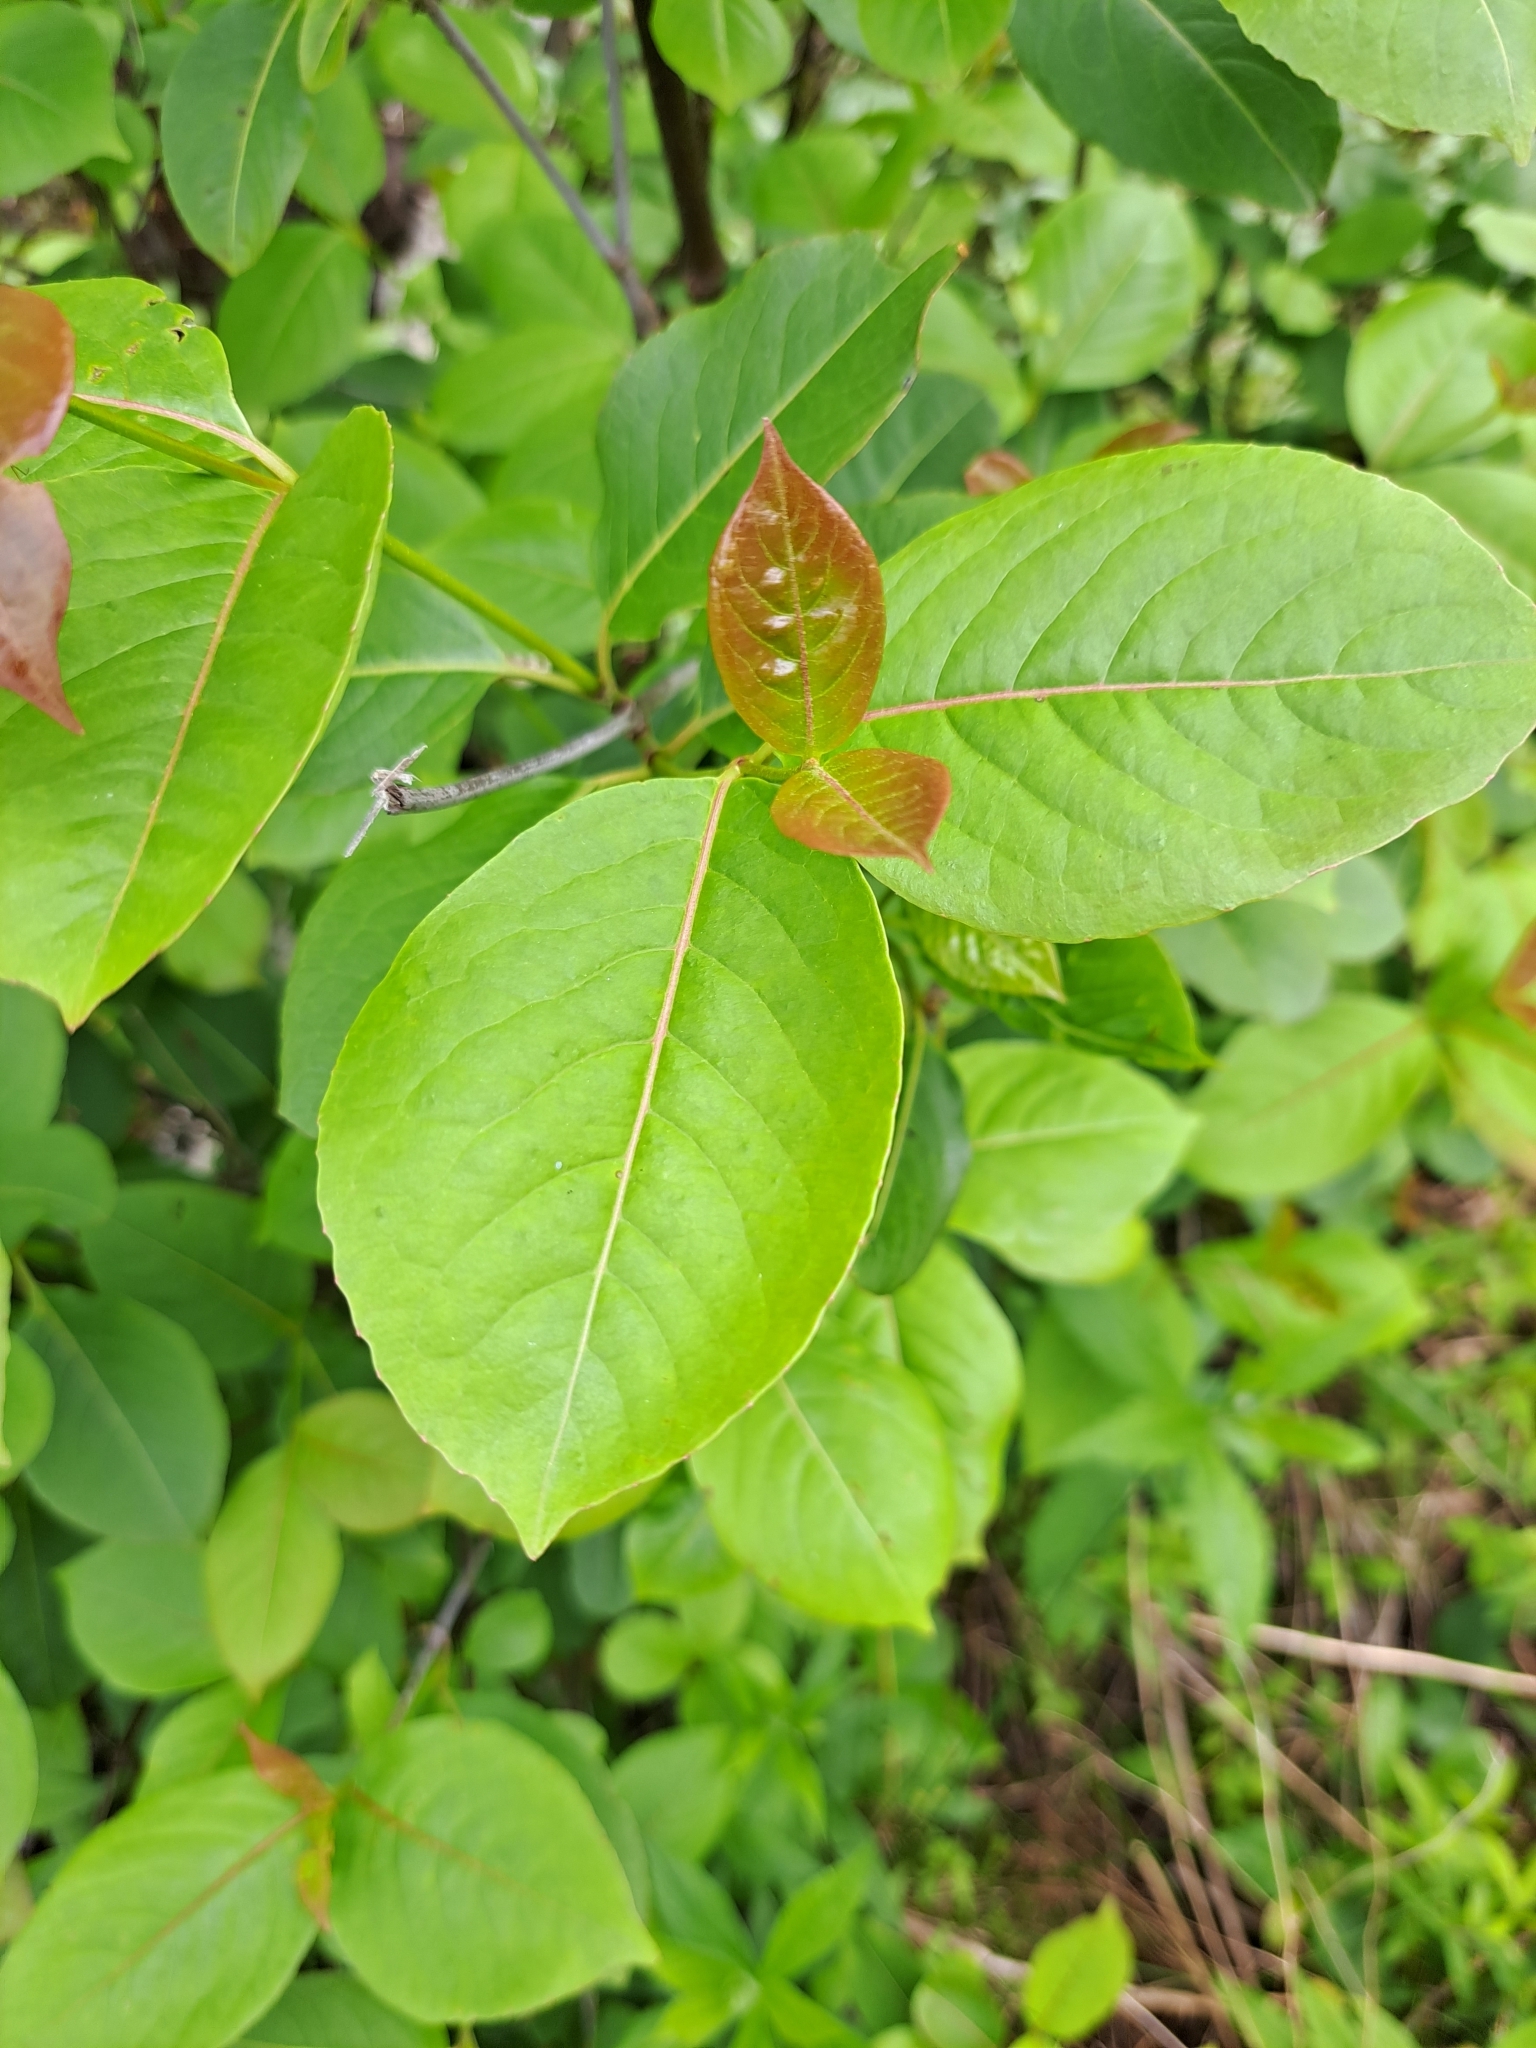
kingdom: Plantae
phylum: Tracheophyta
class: Magnoliopsida
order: Dipsacales
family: Viburnaceae
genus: Viburnum
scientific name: Viburnum cassinoides
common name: Swamp haw
